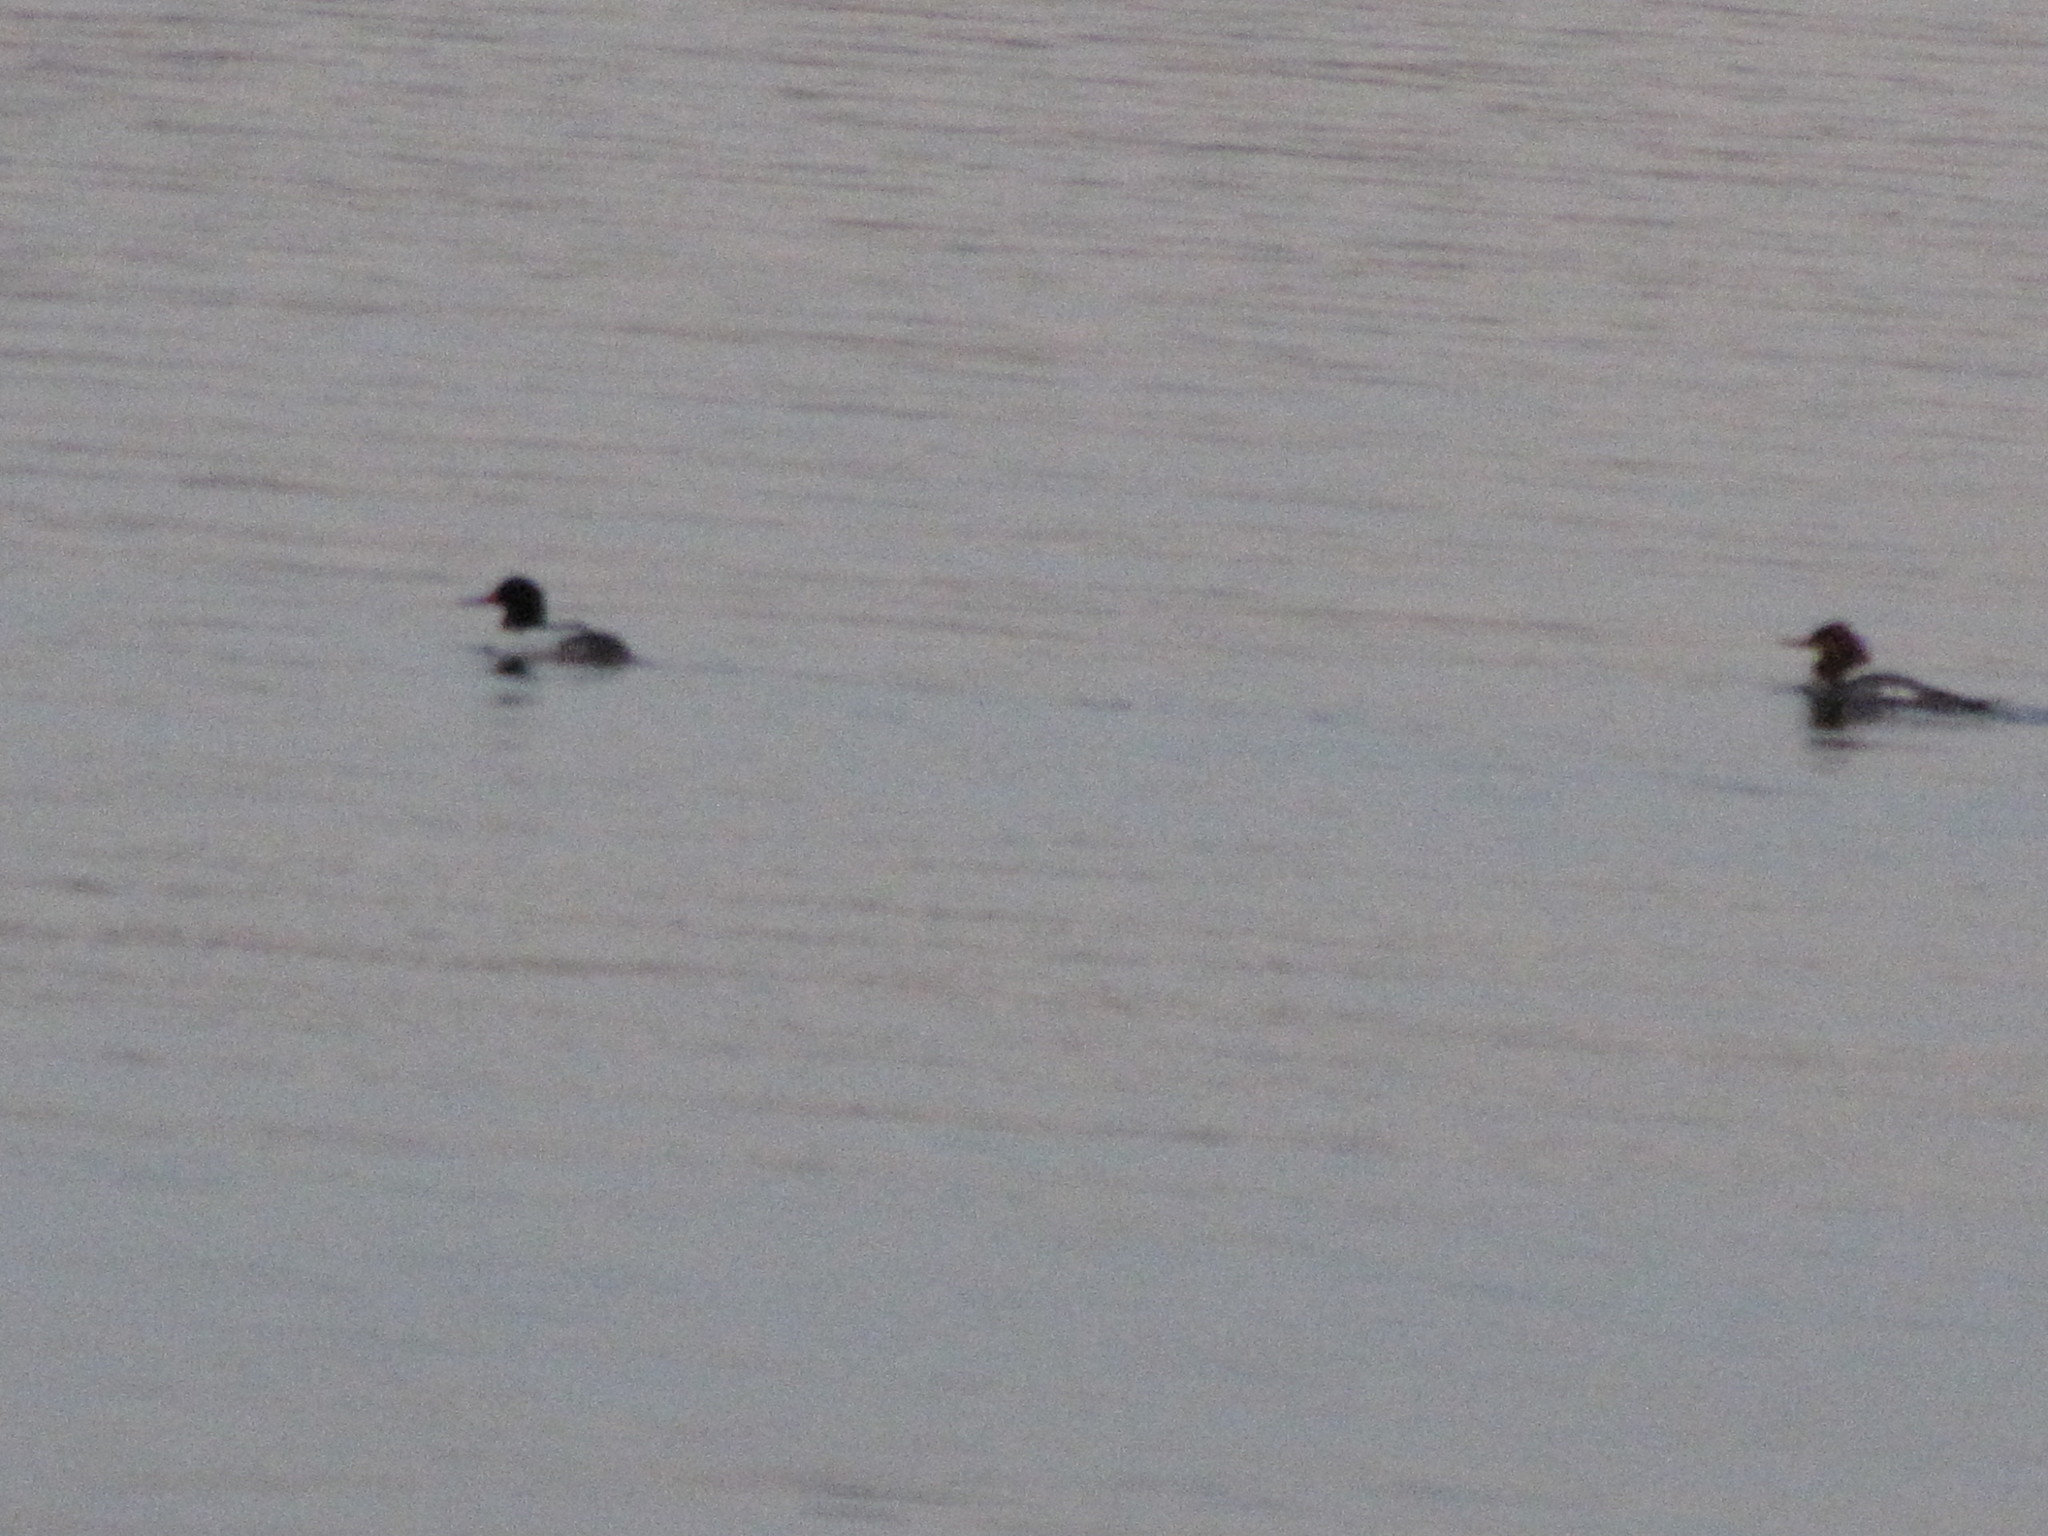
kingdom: Animalia
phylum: Chordata
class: Aves
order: Anseriformes
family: Anatidae
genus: Mergus
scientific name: Mergus merganser
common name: Common merganser
